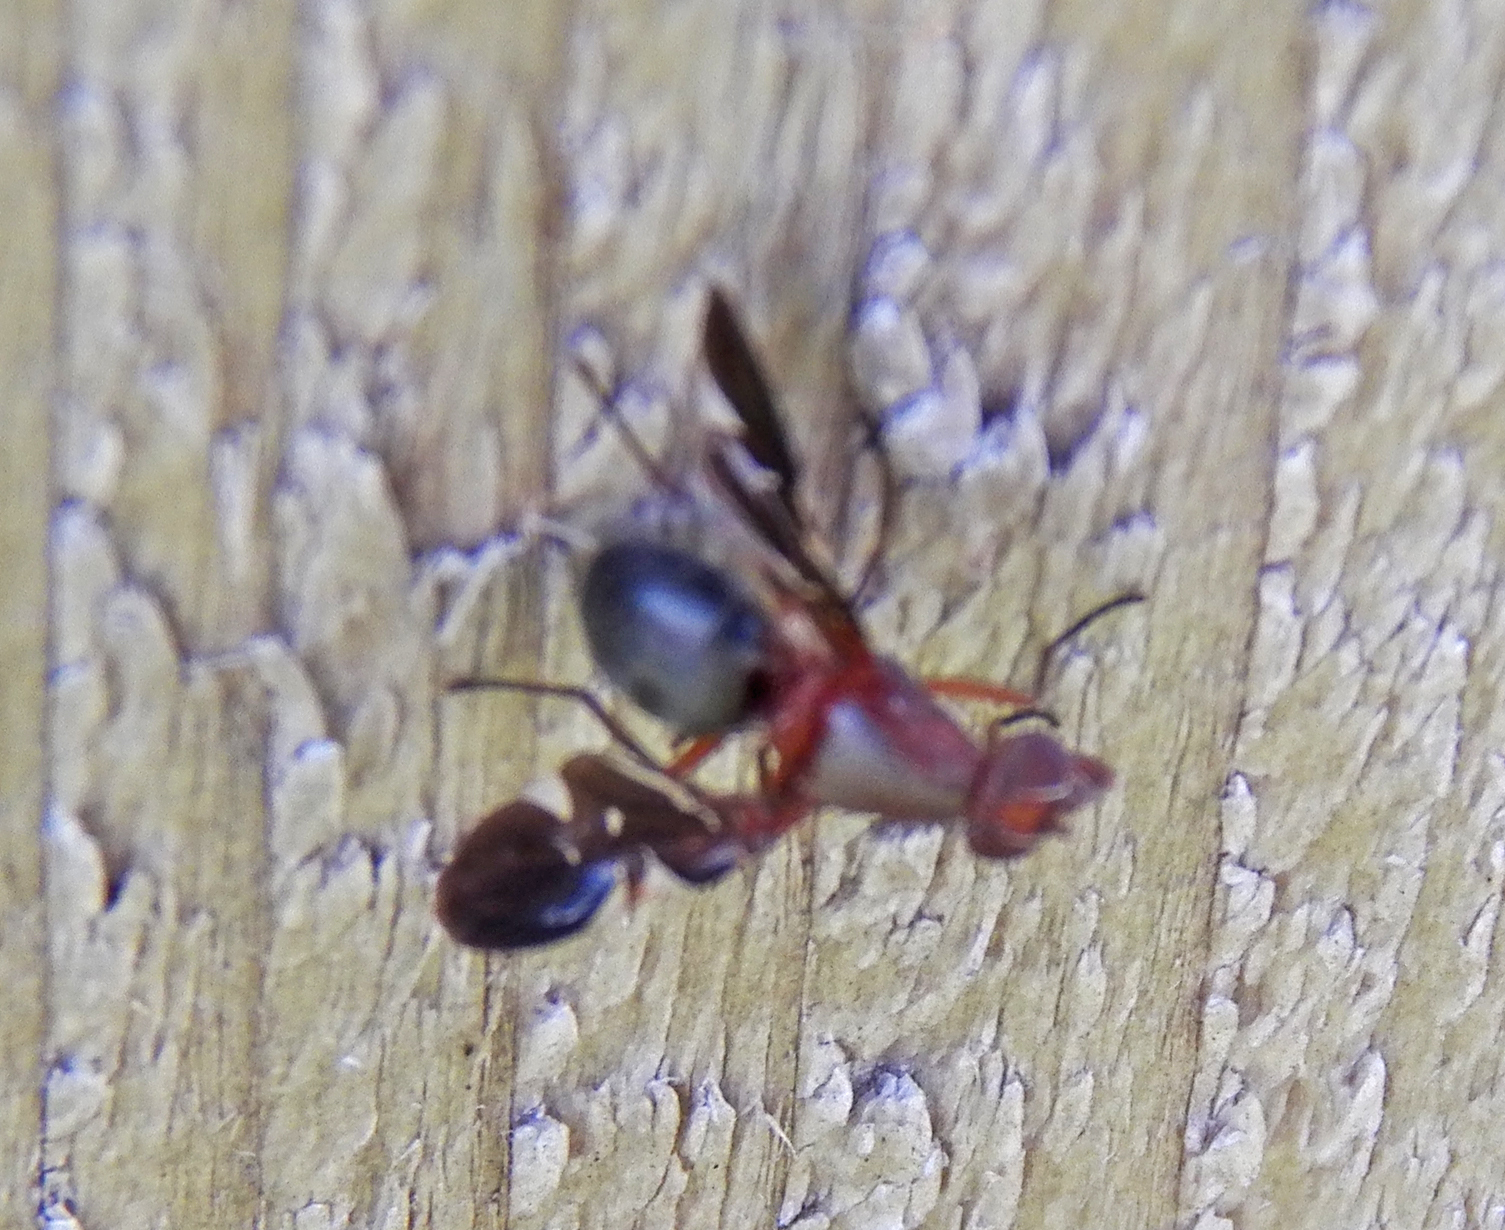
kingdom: Animalia
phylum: Arthropoda
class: Insecta
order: Diptera
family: Ulidiidae
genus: Delphinia
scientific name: Delphinia picta
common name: Common picture-winged fly
